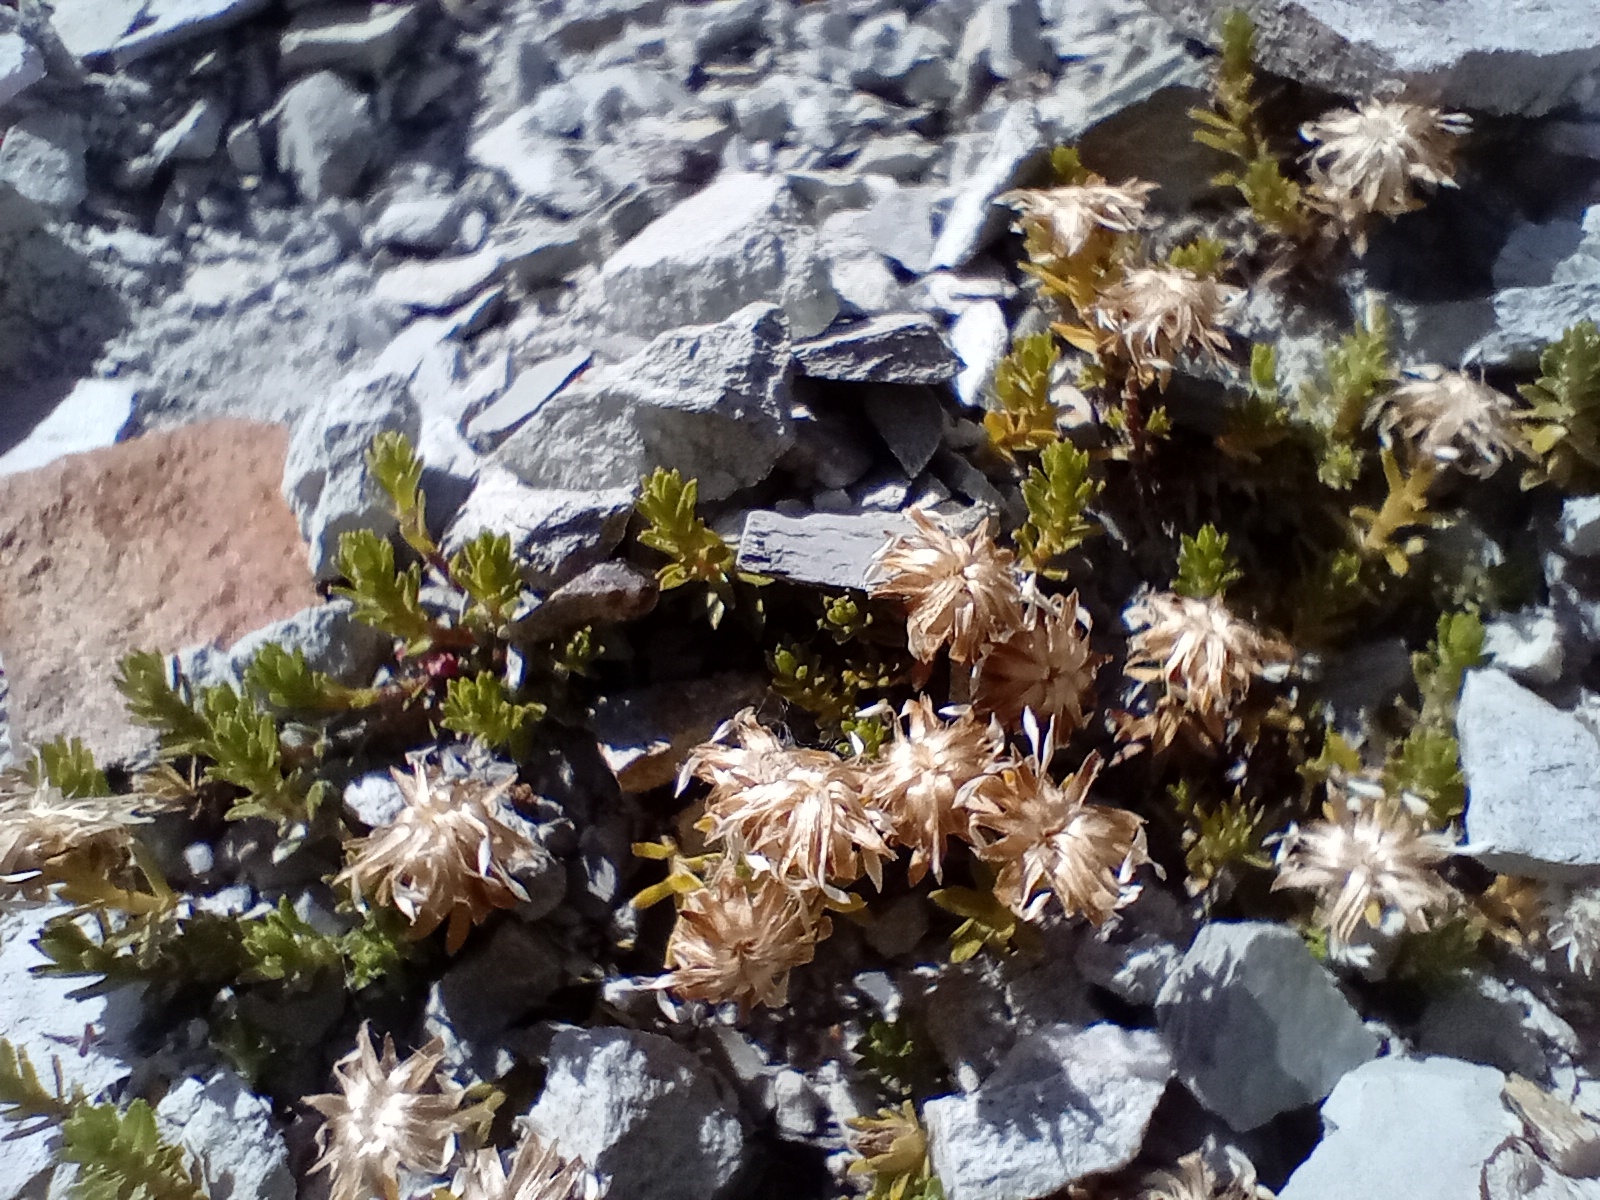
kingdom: Plantae
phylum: Tracheophyta
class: Magnoliopsida
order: Asterales
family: Asteraceae
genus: Raoulia
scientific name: Raoulia glabra
